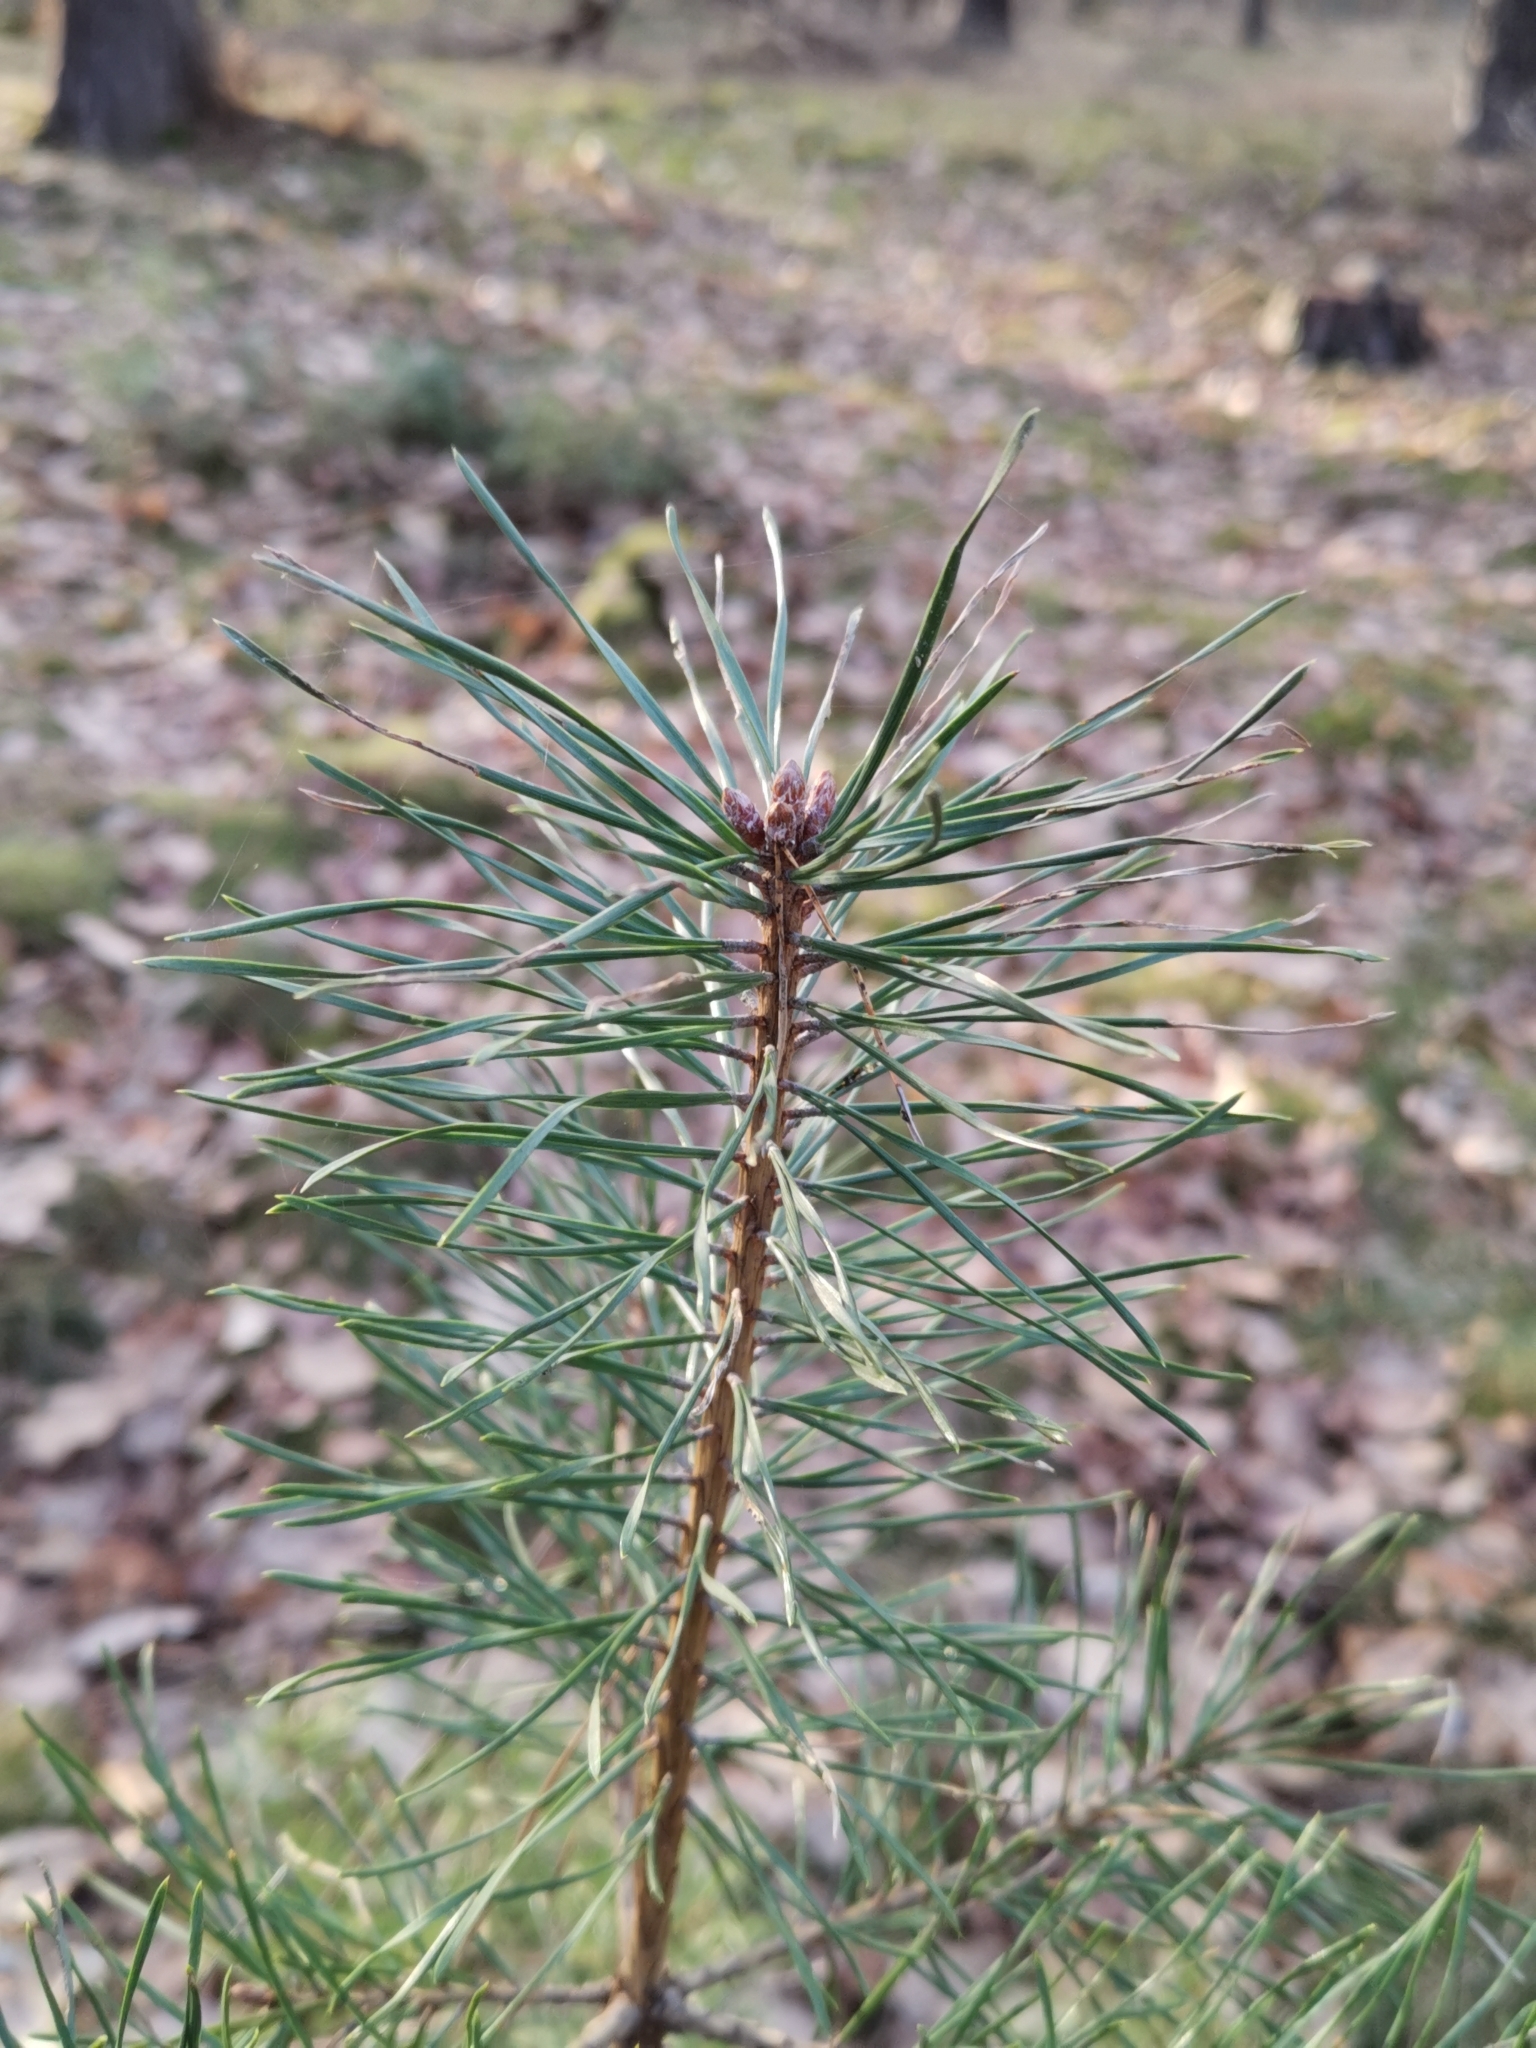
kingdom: Plantae
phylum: Tracheophyta
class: Pinopsida
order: Pinales
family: Pinaceae
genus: Pinus
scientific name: Pinus sylvestris
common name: Scots pine
